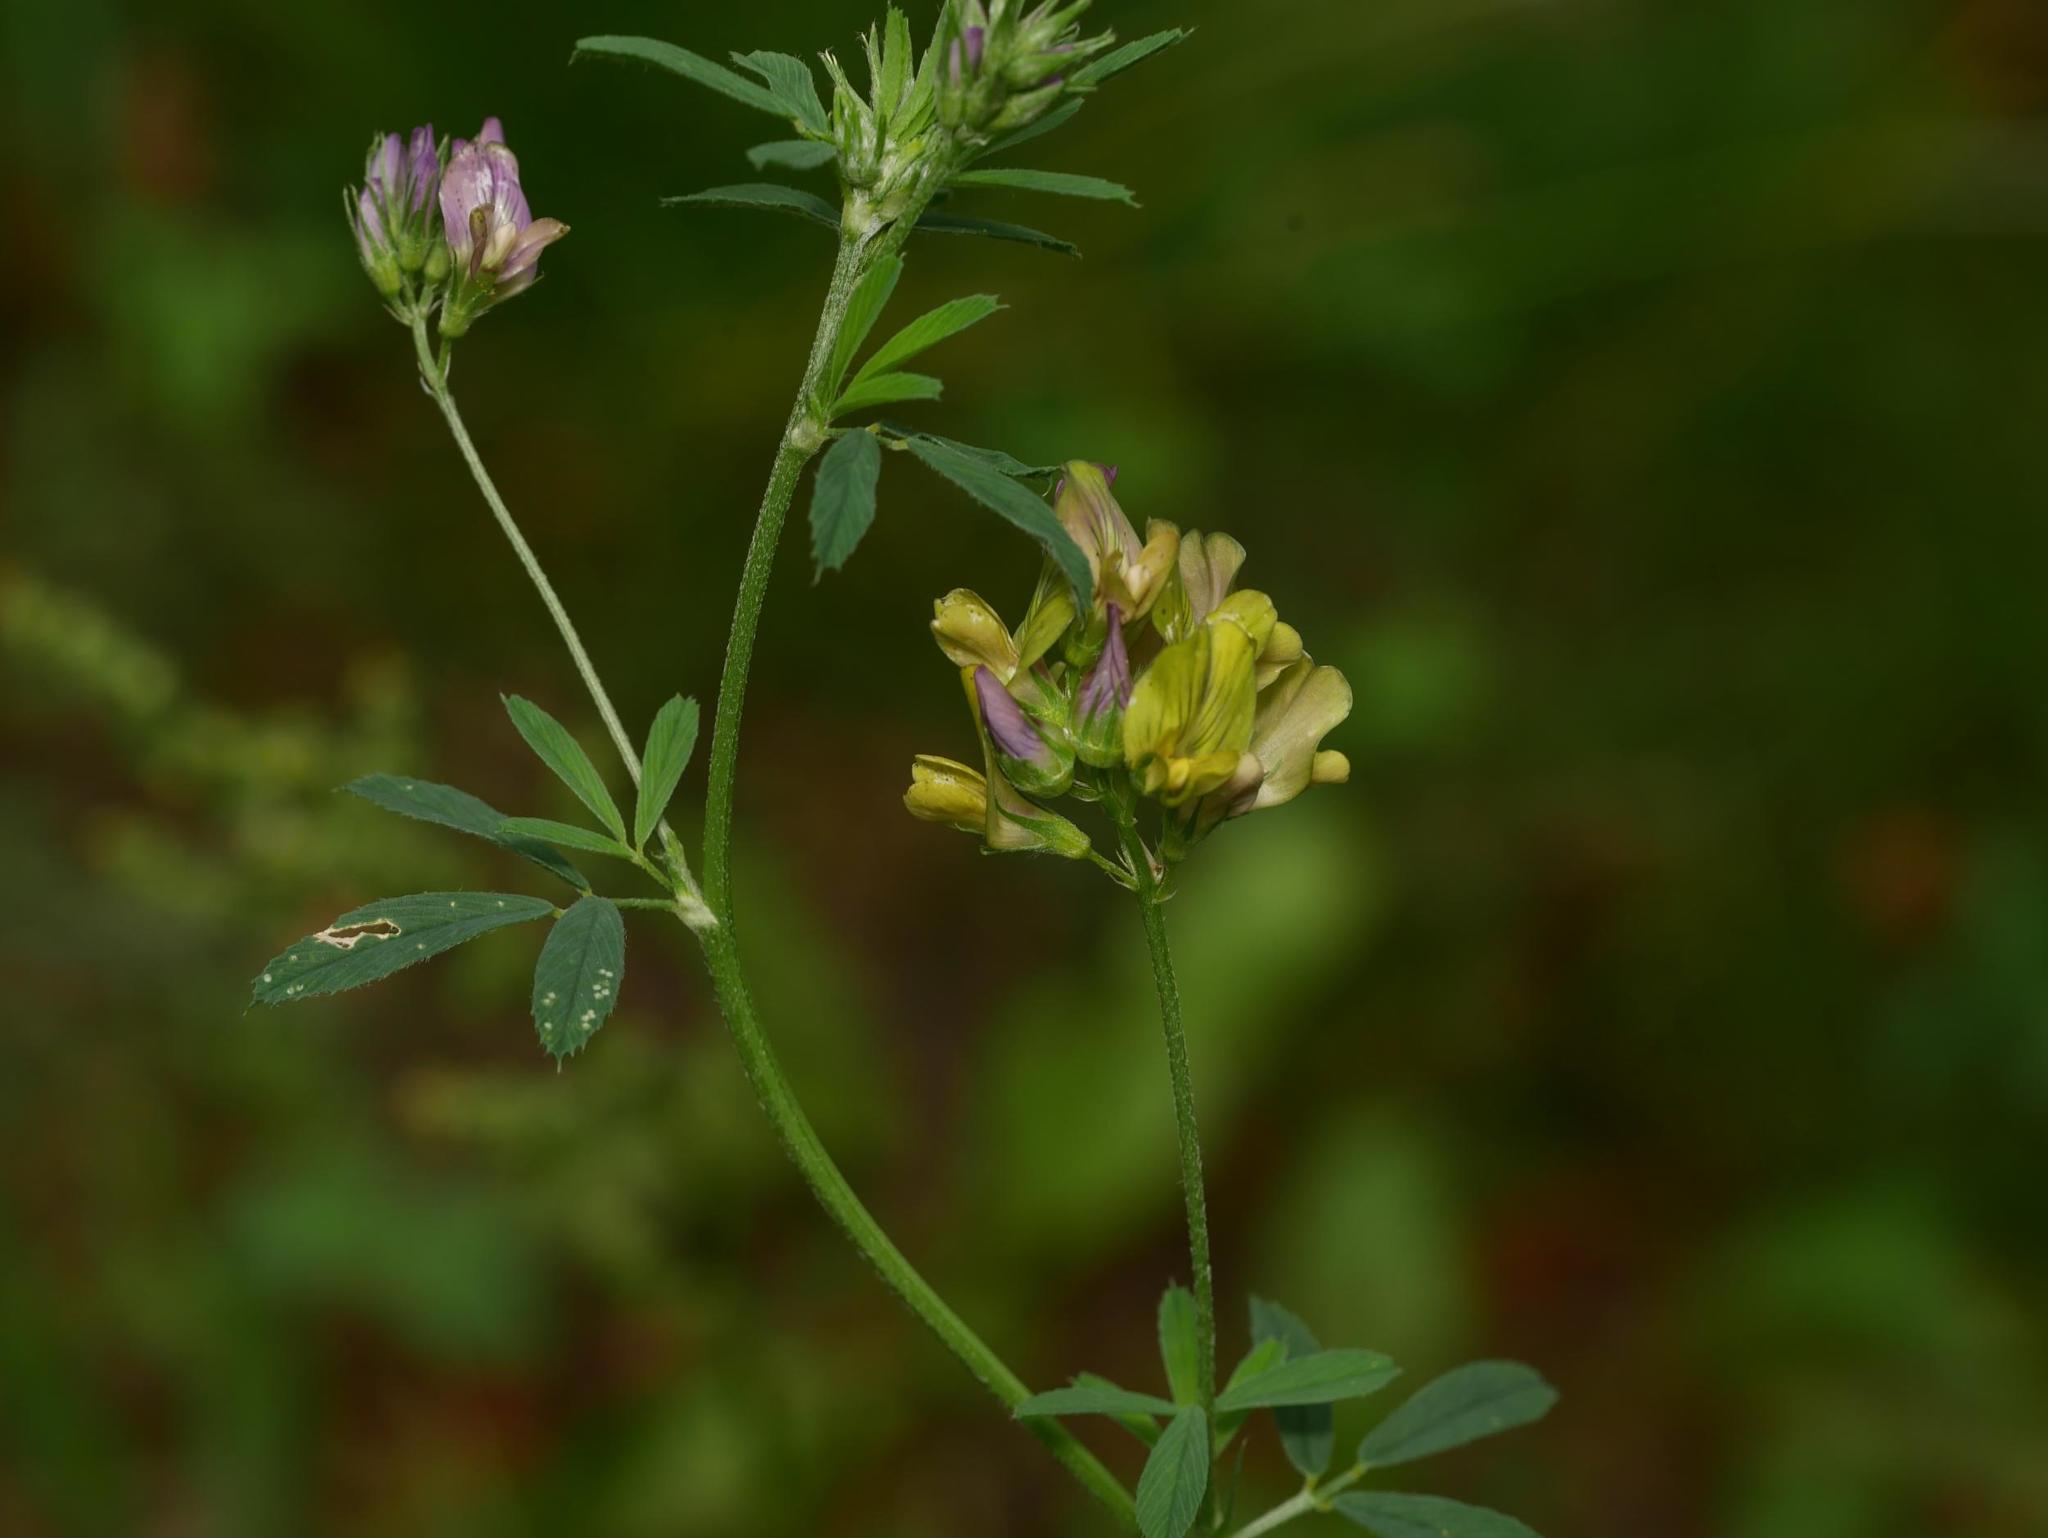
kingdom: Plantae
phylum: Tracheophyta
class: Magnoliopsida
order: Fabales
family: Fabaceae
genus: Medicago
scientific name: Medicago varia
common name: Sand lucerne
